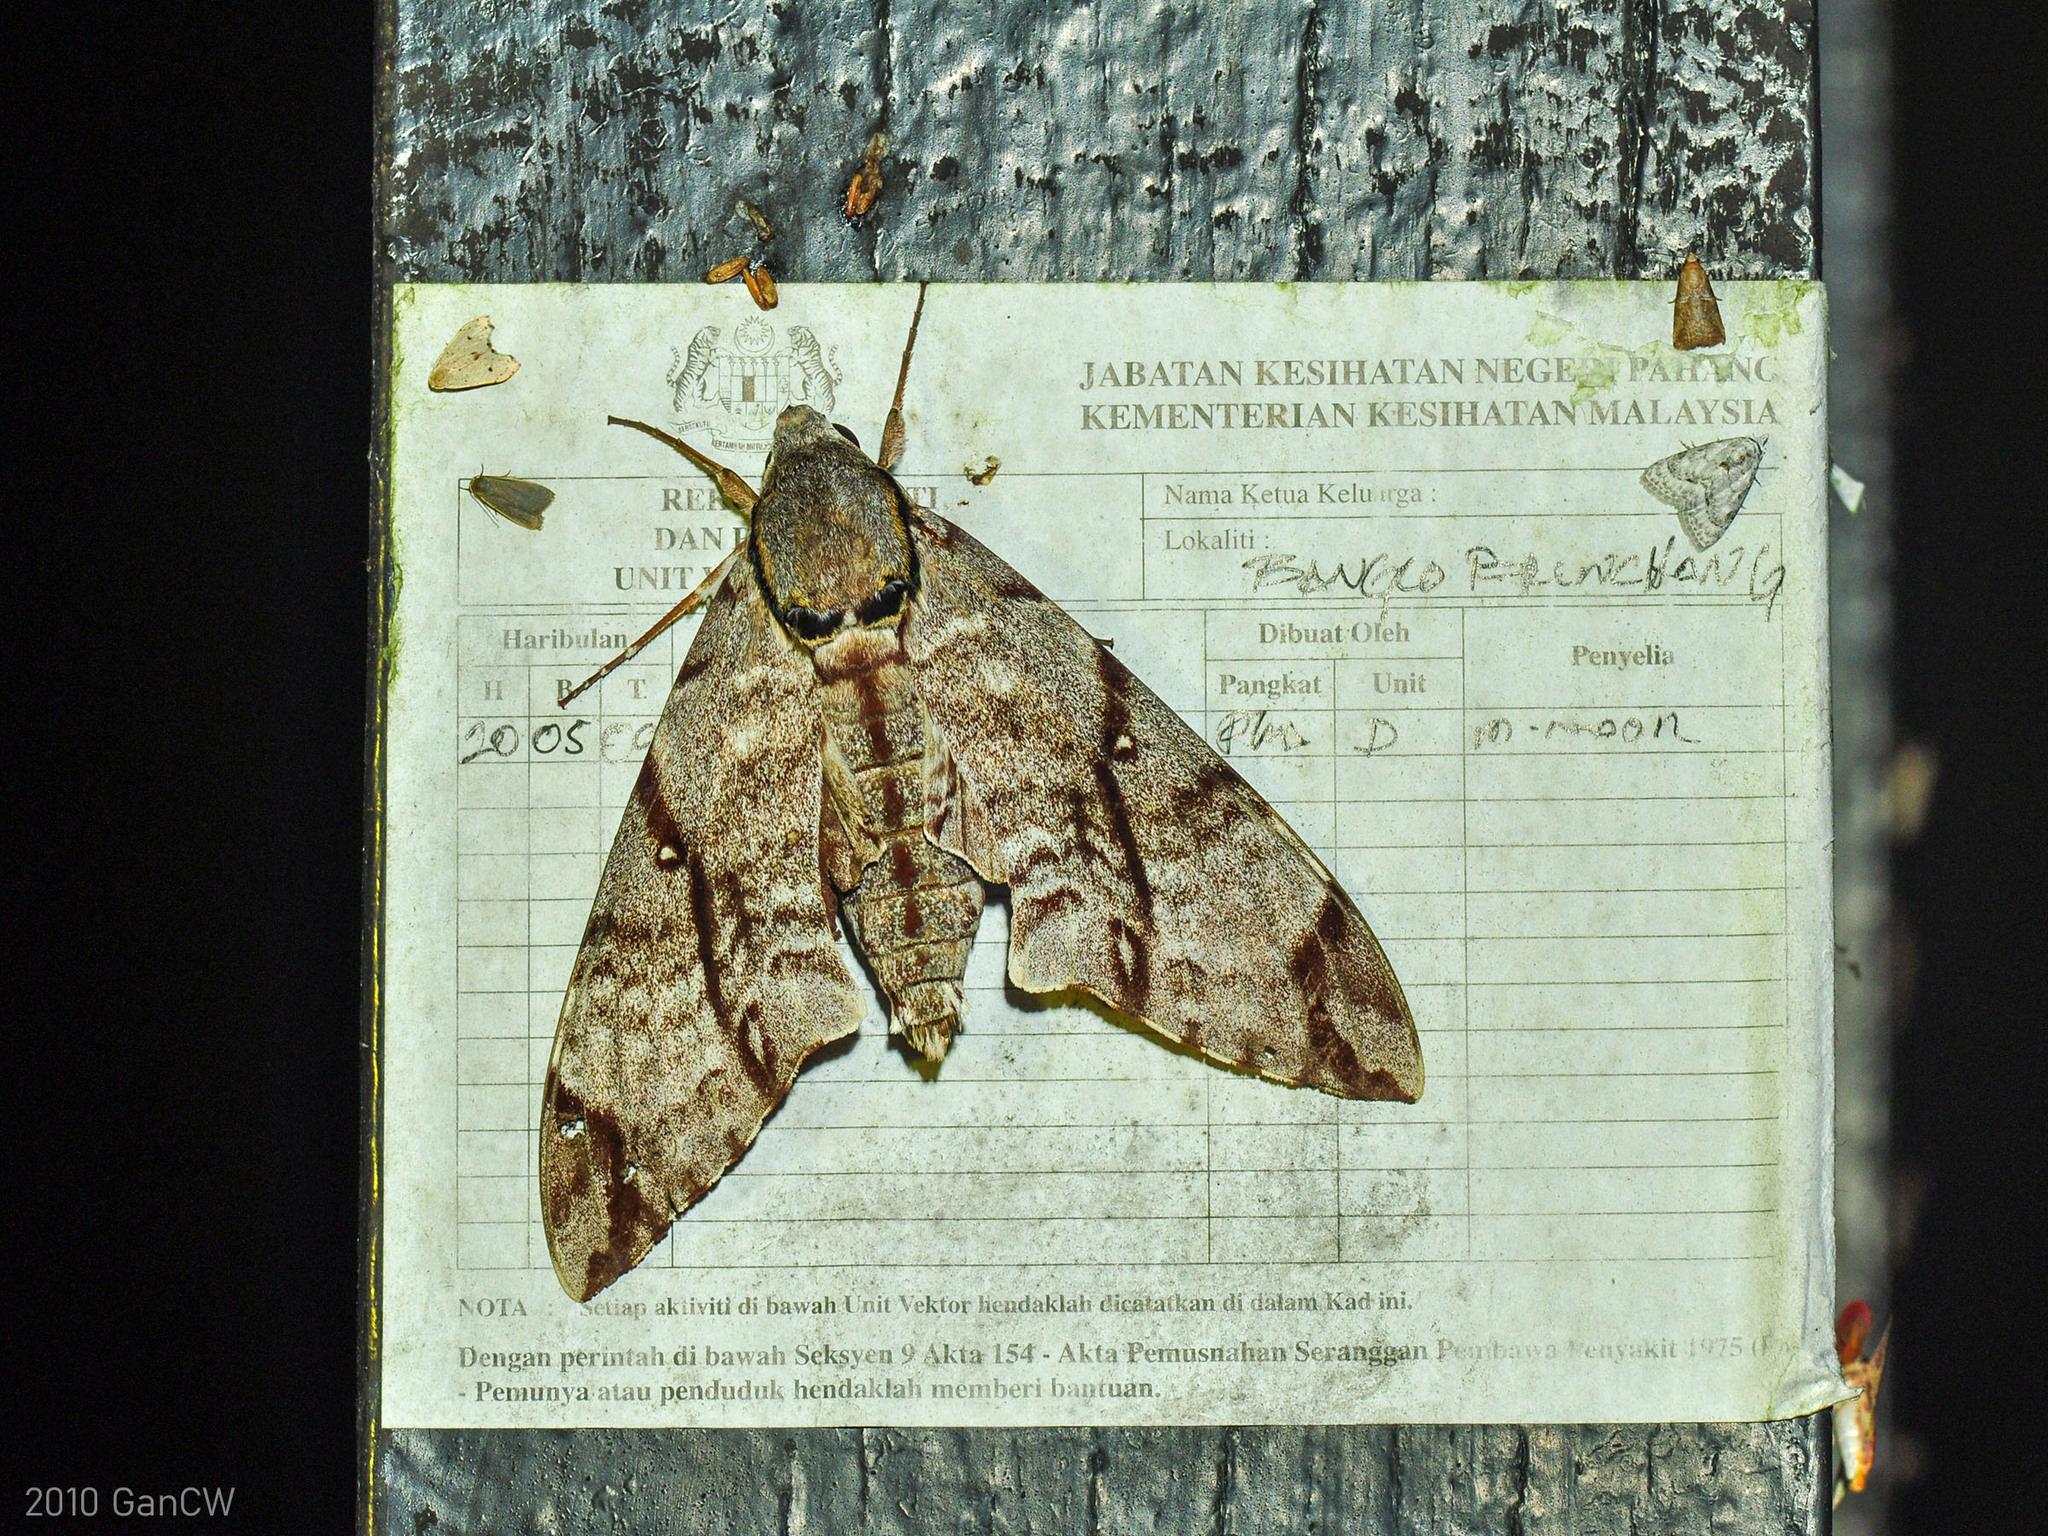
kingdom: Animalia
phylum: Arthropoda
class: Insecta
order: Lepidoptera
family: Sphingidae
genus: Notonagemia
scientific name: Notonagemia analis
